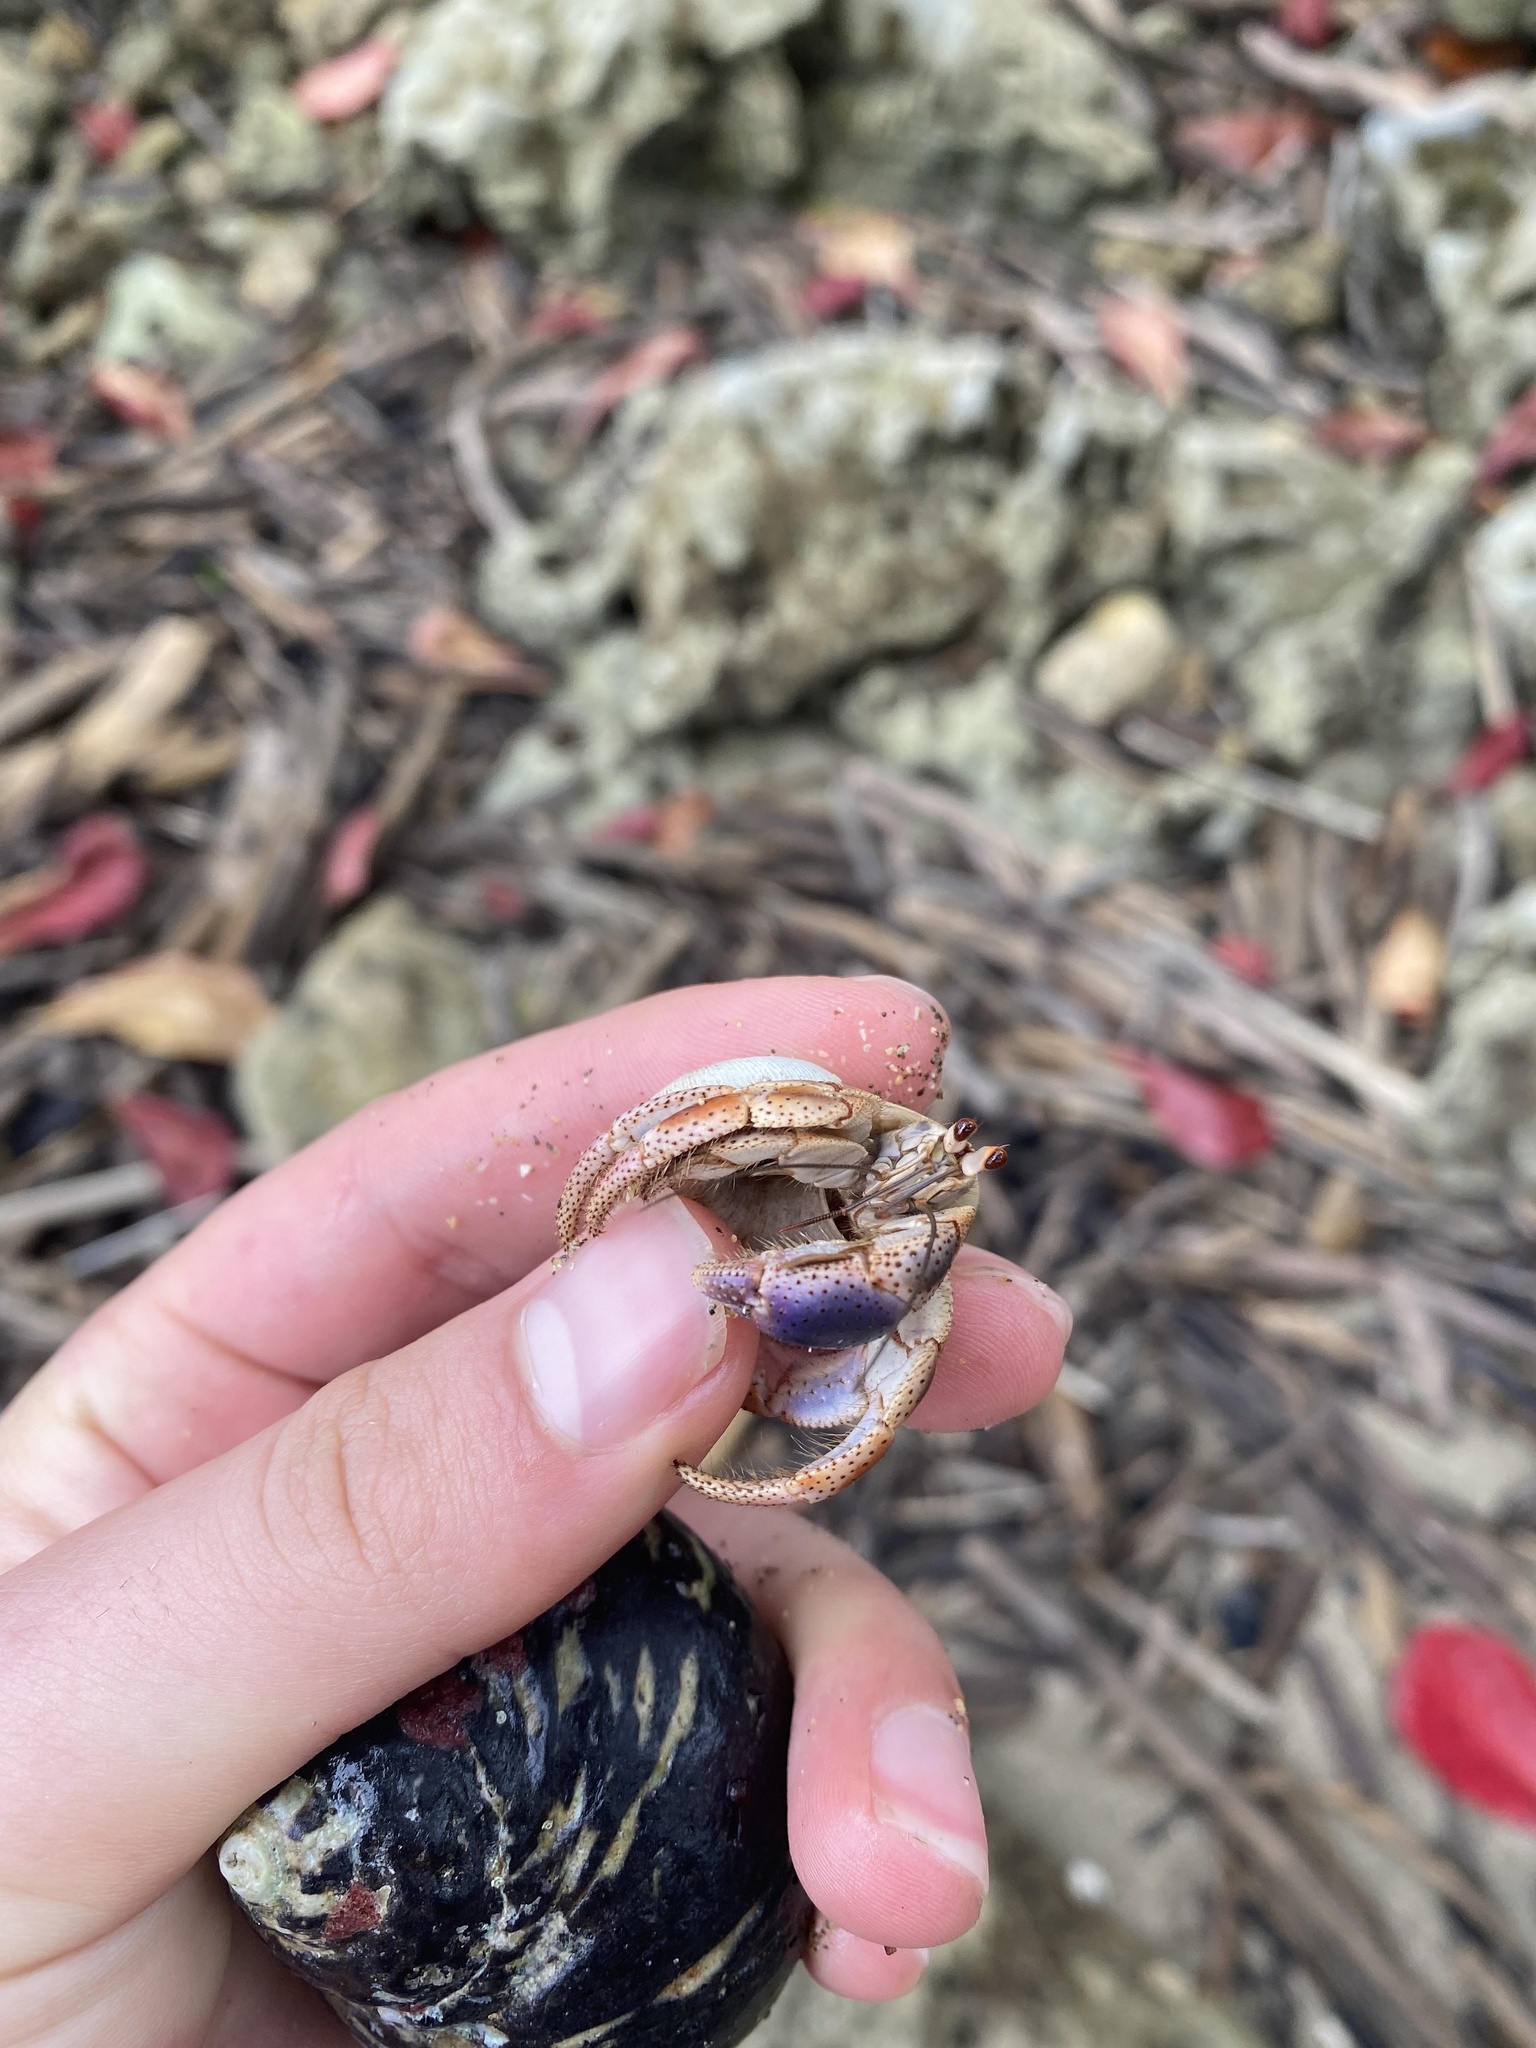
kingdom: Animalia
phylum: Arthropoda
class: Malacostraca
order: Decapoda
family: Coenobitidae
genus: Coenobita
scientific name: Coenobita clypeatus
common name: Caribbean hermit crab
